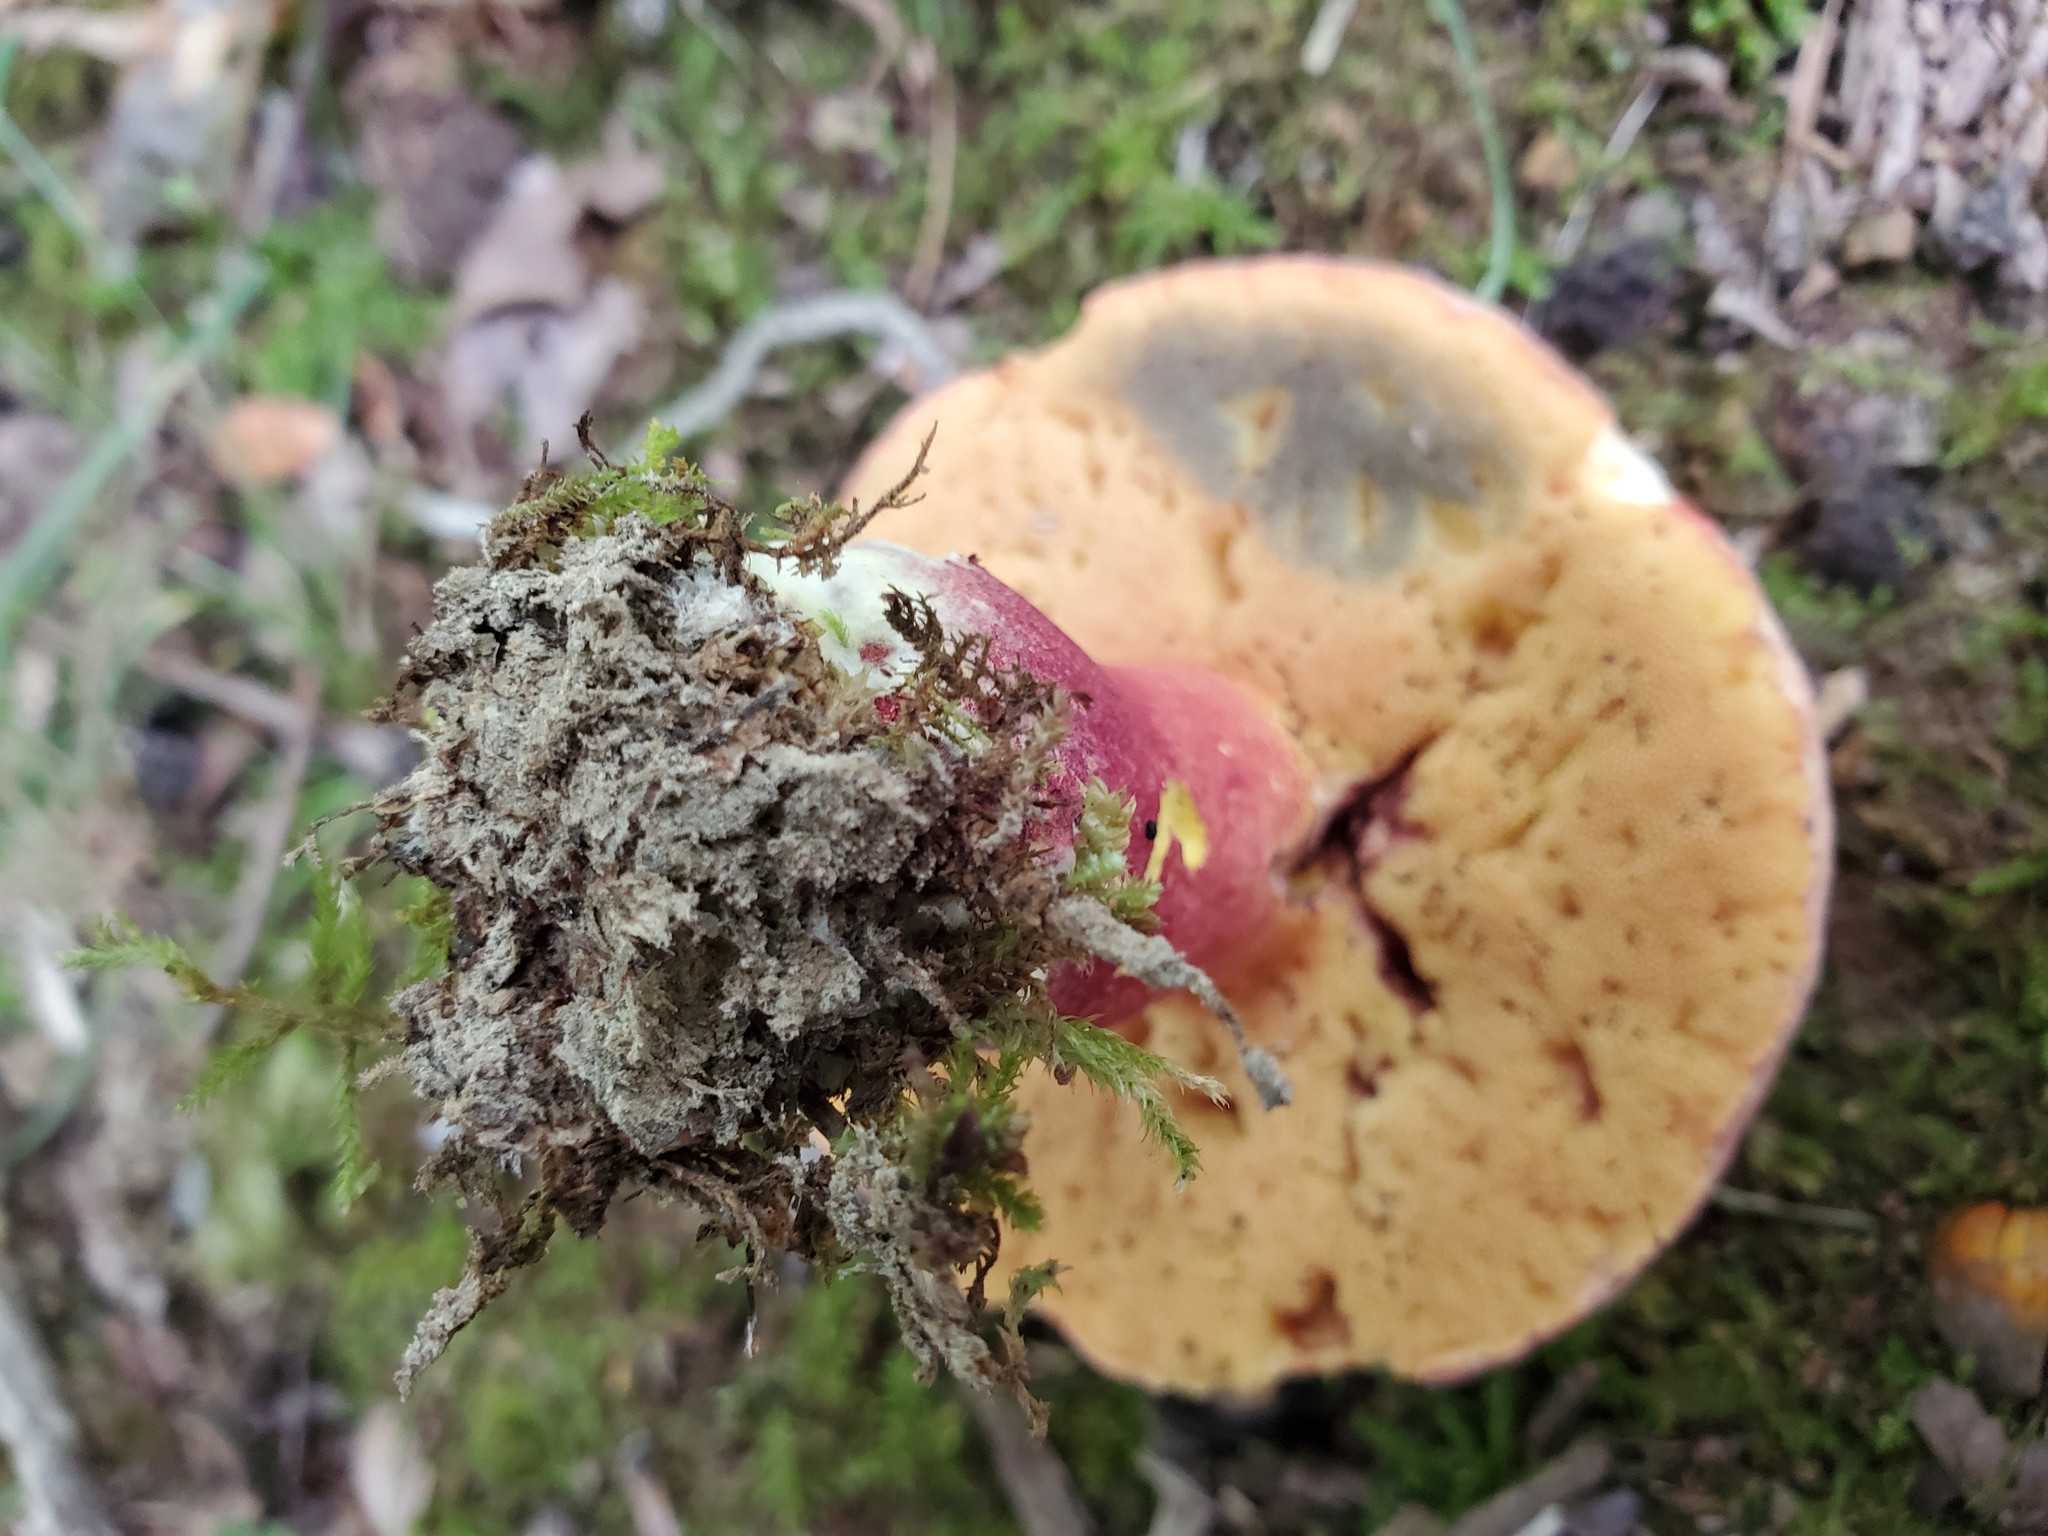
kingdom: Fungi
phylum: Basidiomycota
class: Agaricomycetes
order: Boletales
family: Boletaceae
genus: Baorangia
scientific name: Baorangia bicolor
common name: Two-colored bolete
